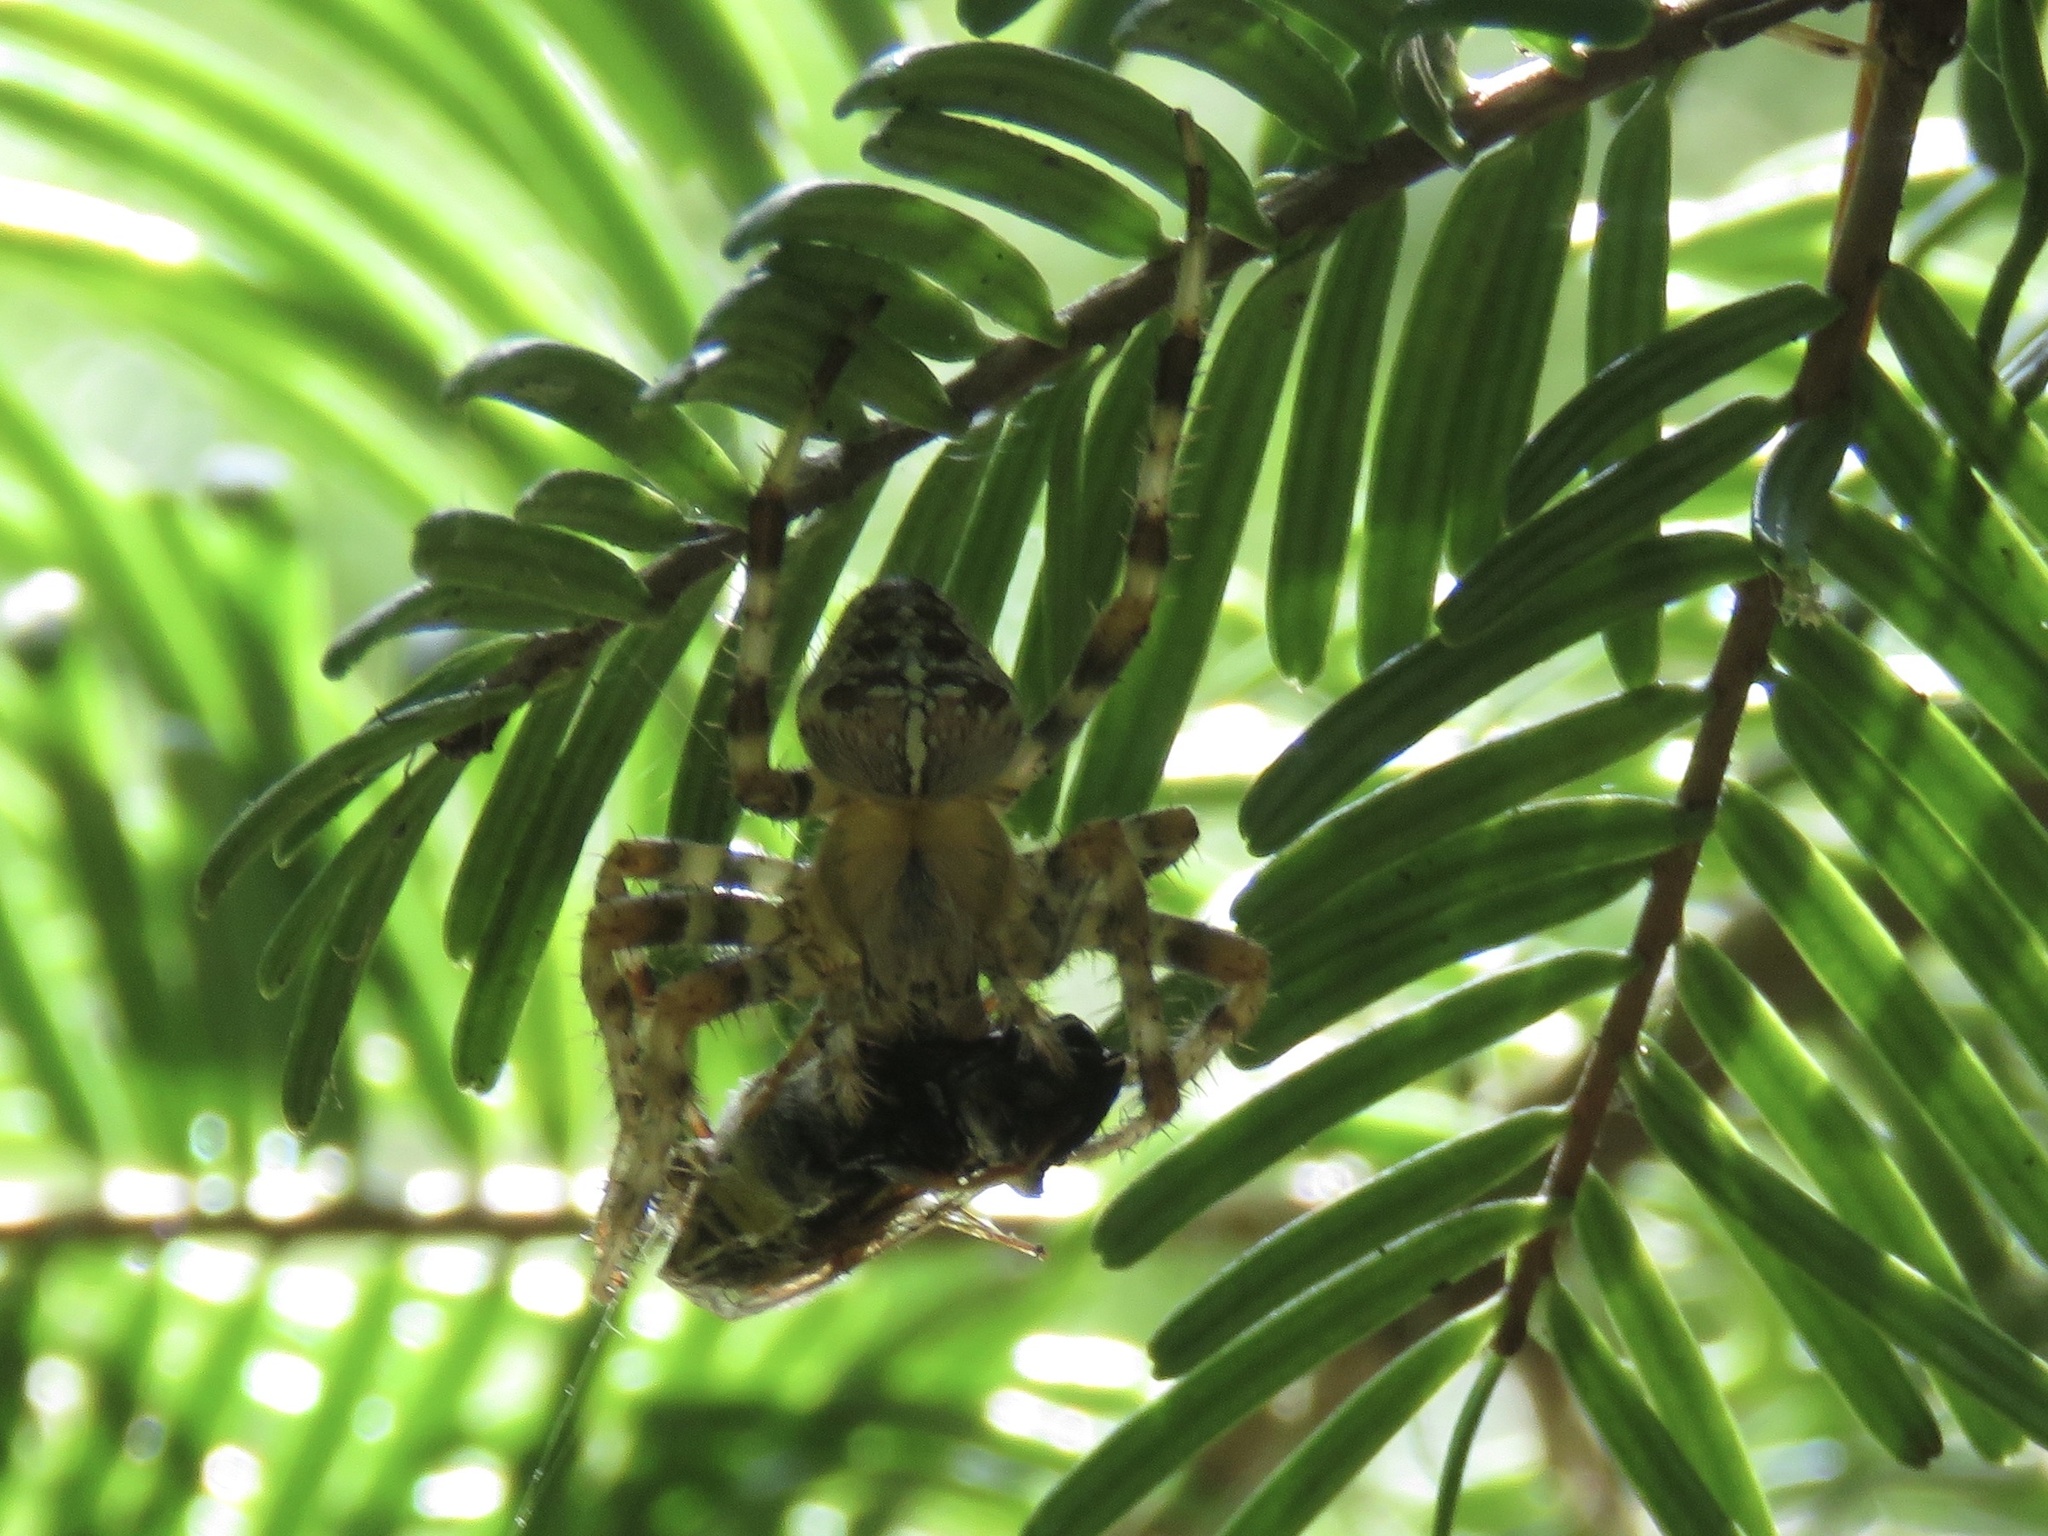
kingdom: Animalia
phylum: Arthropoda
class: Arachnida
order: Araneae
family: Araneidae
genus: Araneus
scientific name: Araneus diadematus
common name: Cross orbweaver
